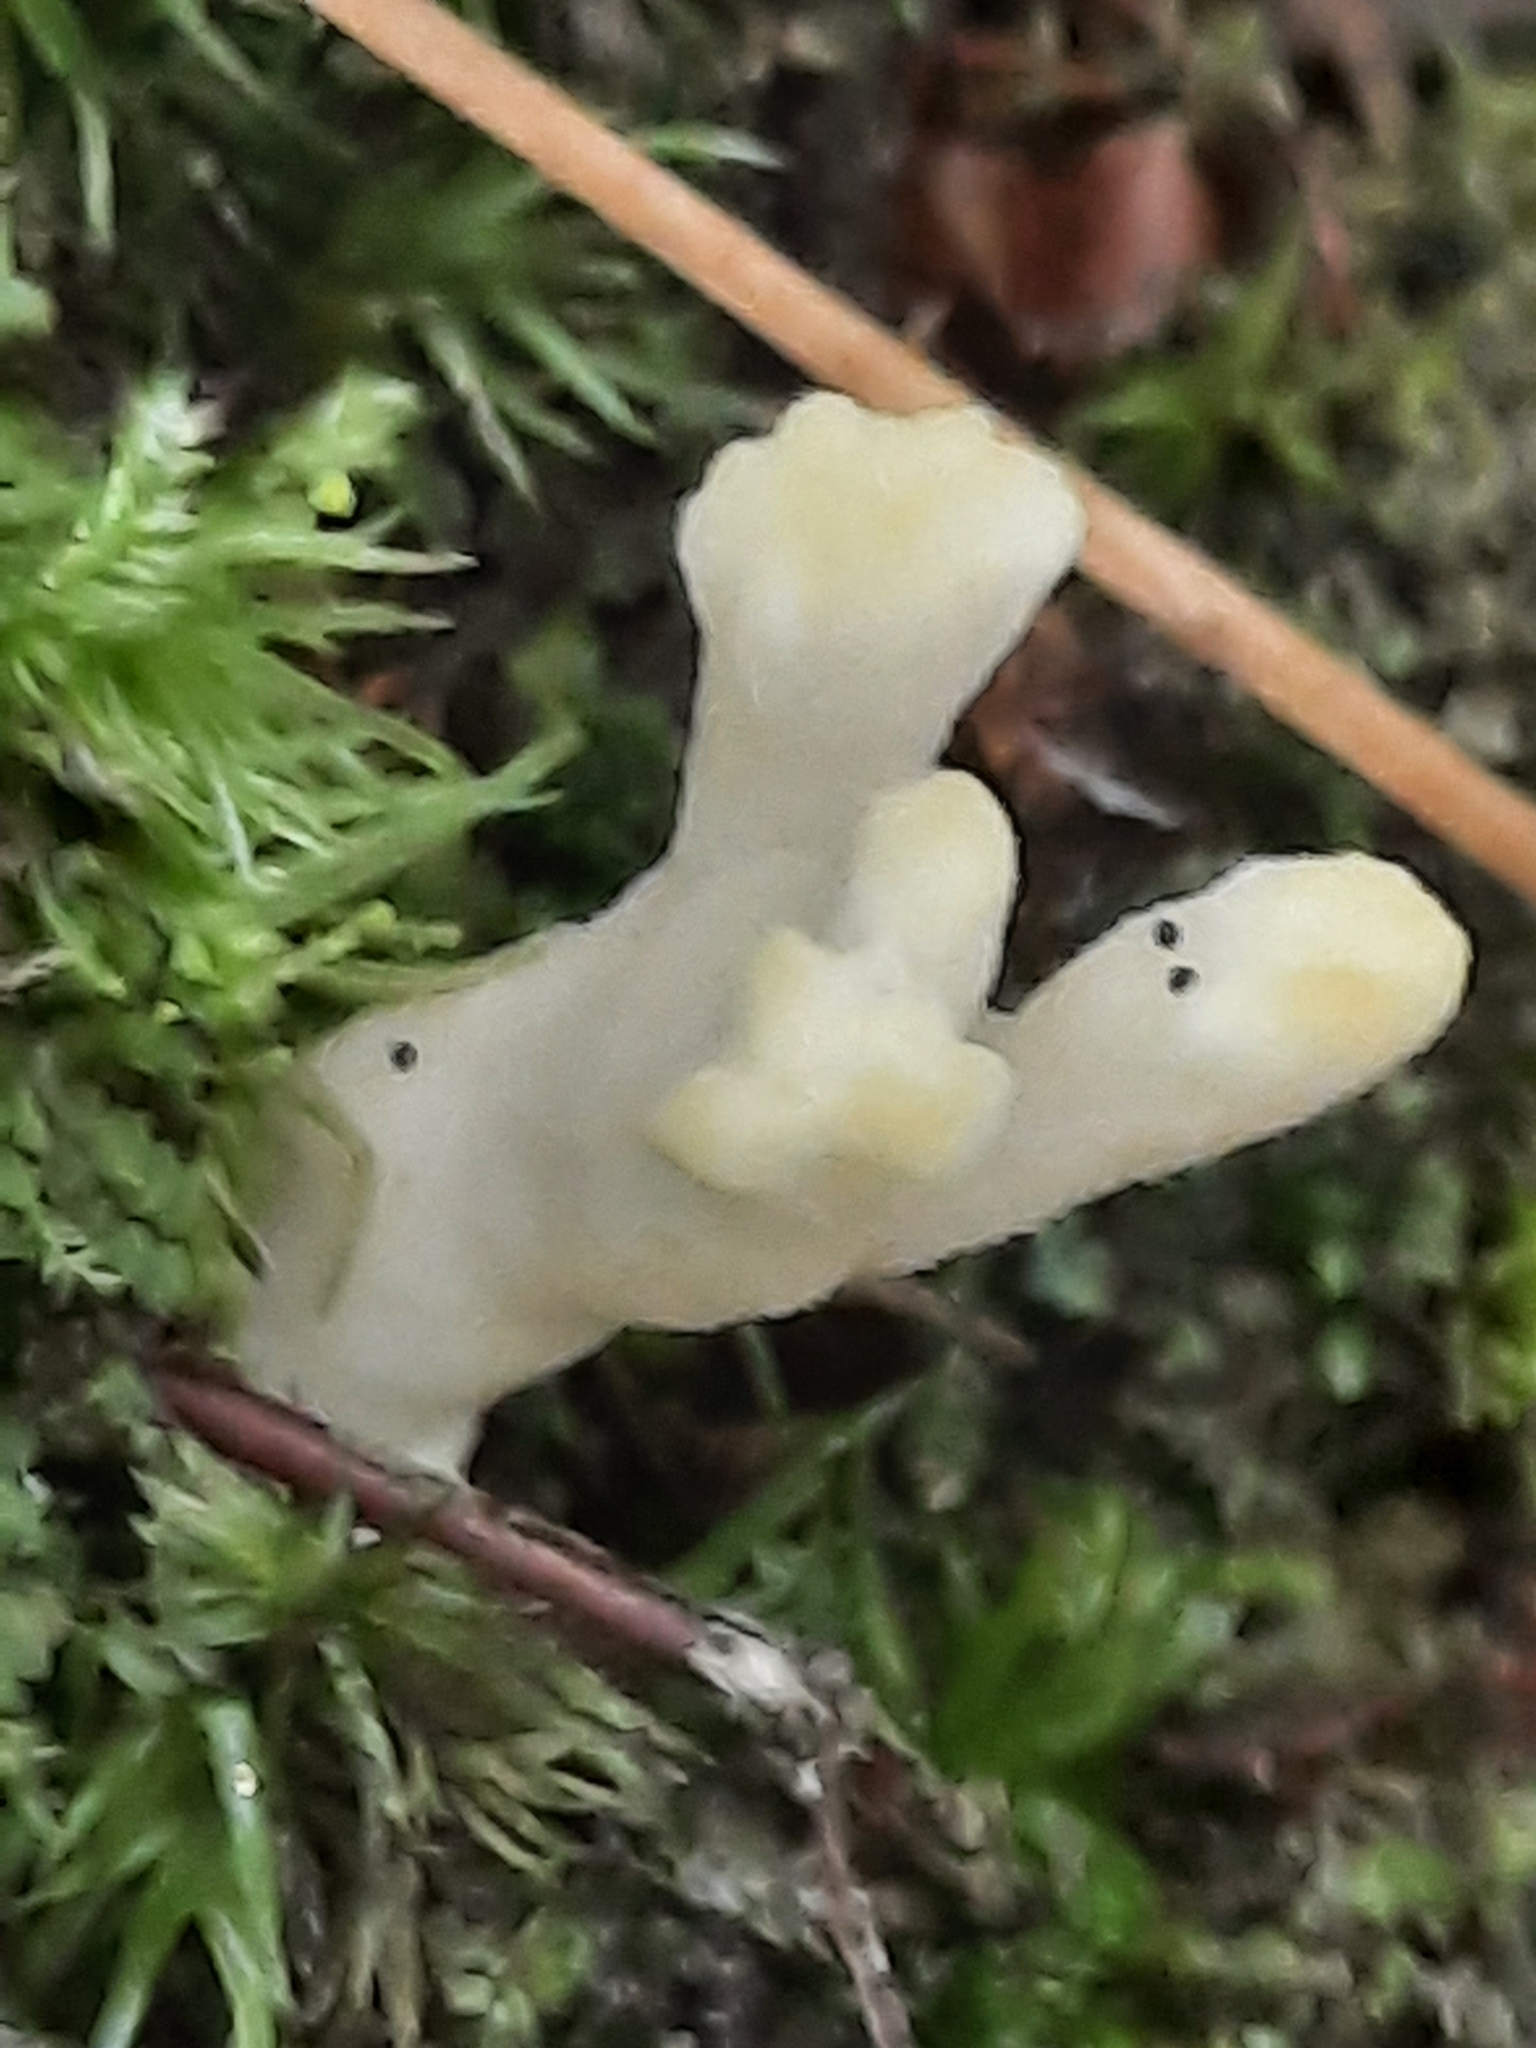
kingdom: Fungi
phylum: Basidiomycota
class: Agaricomycetes
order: Sebacinales
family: Sebacinaceae
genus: Sebacina
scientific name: Sebacina schweinitzii
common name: Jellied false coral fungus
